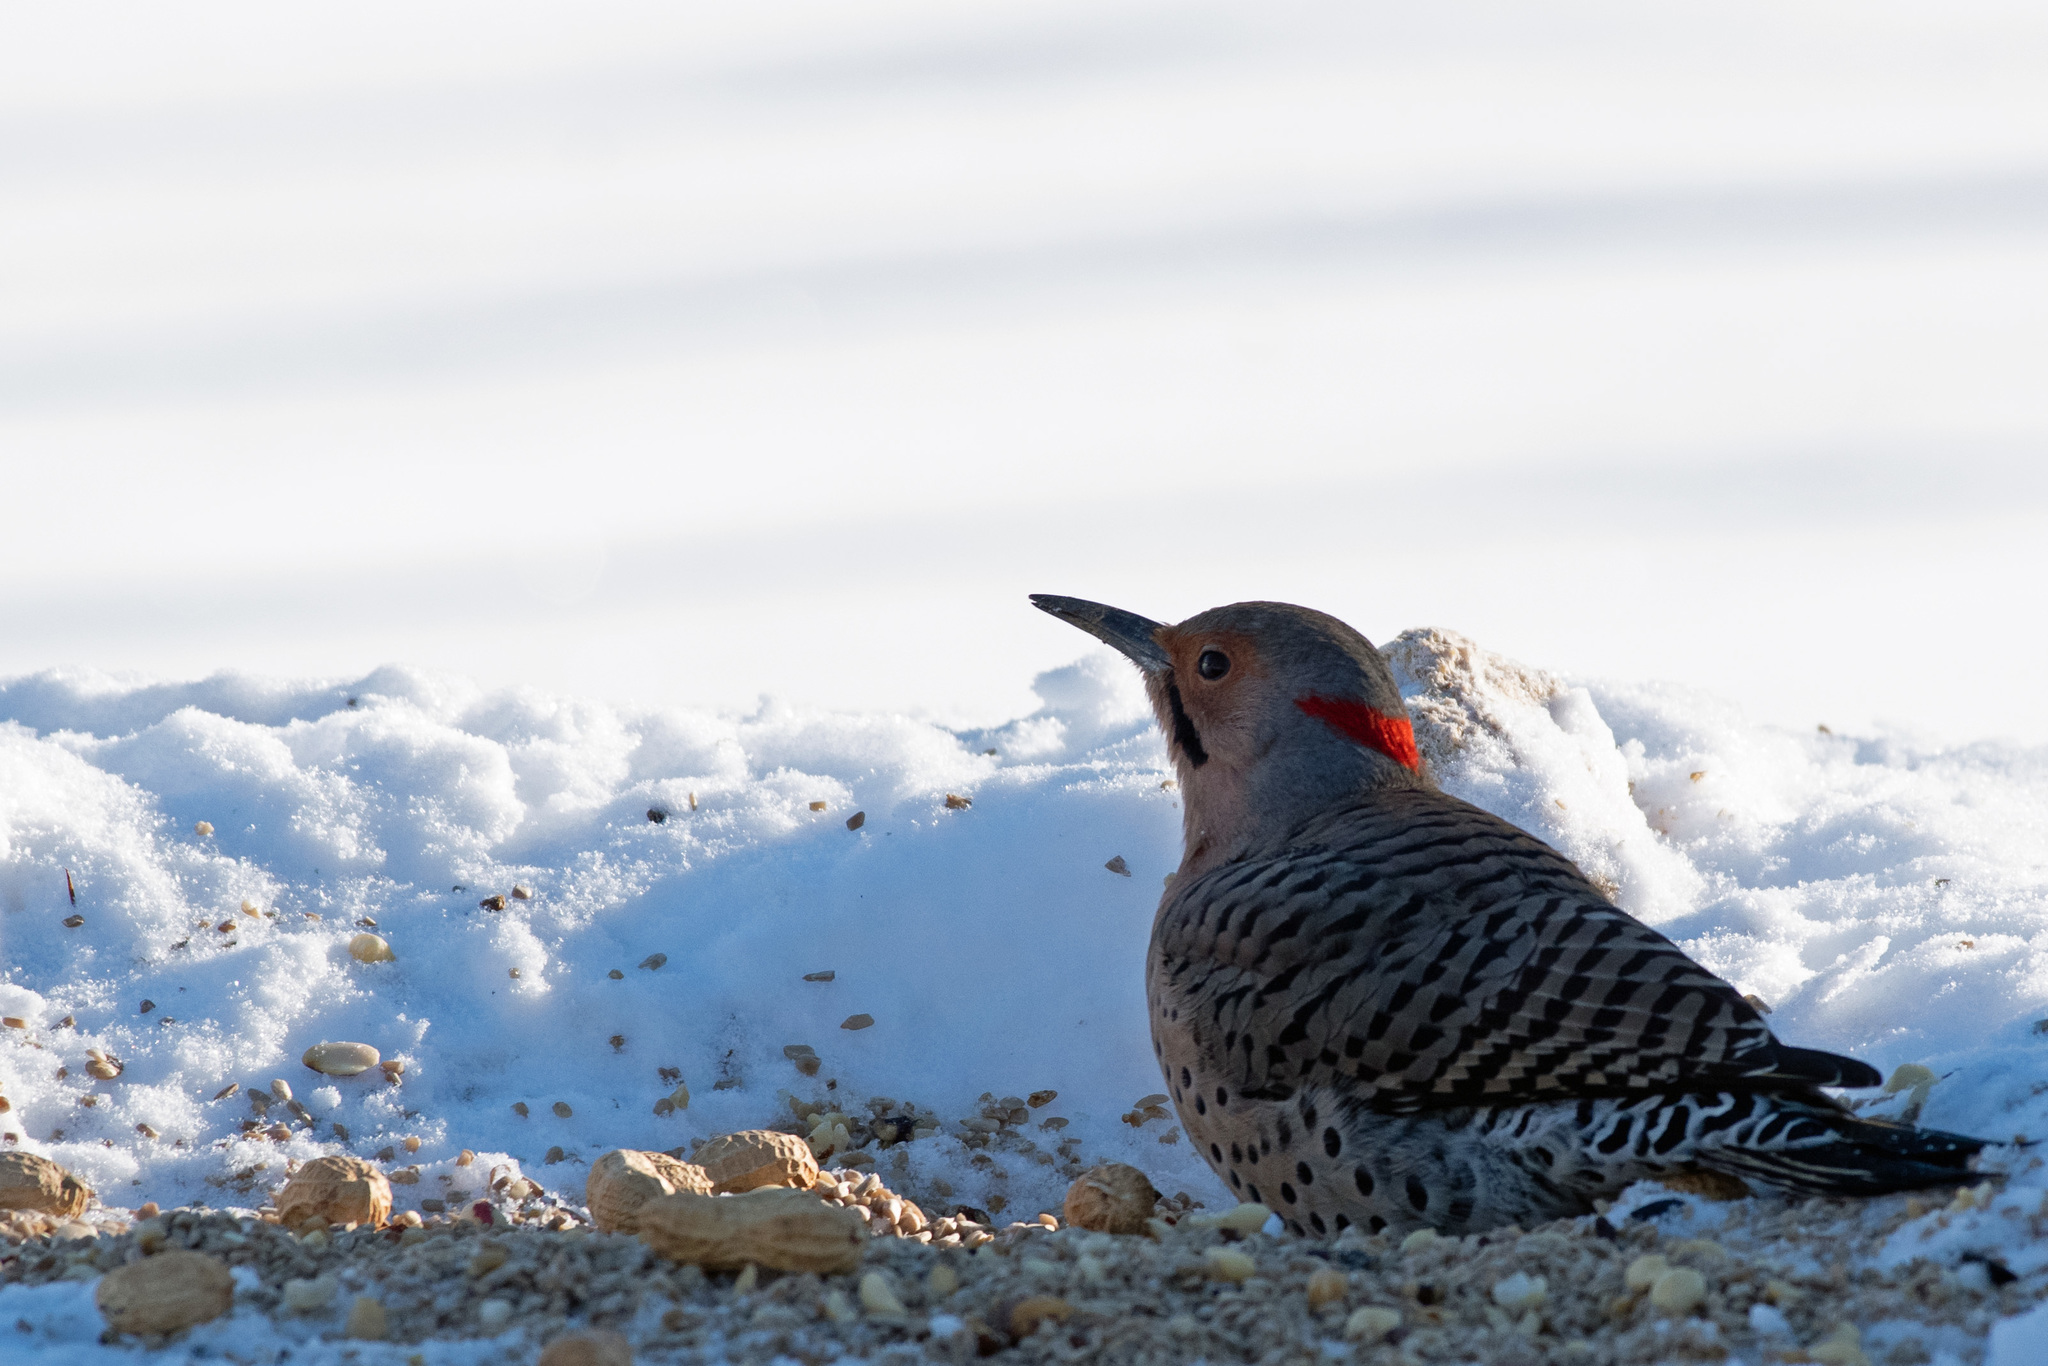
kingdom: Animalia
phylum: Chordata
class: Aves
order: Piciformes
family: Picidae
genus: Colaptes
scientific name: Colaptes auratus
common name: Northern flicker
